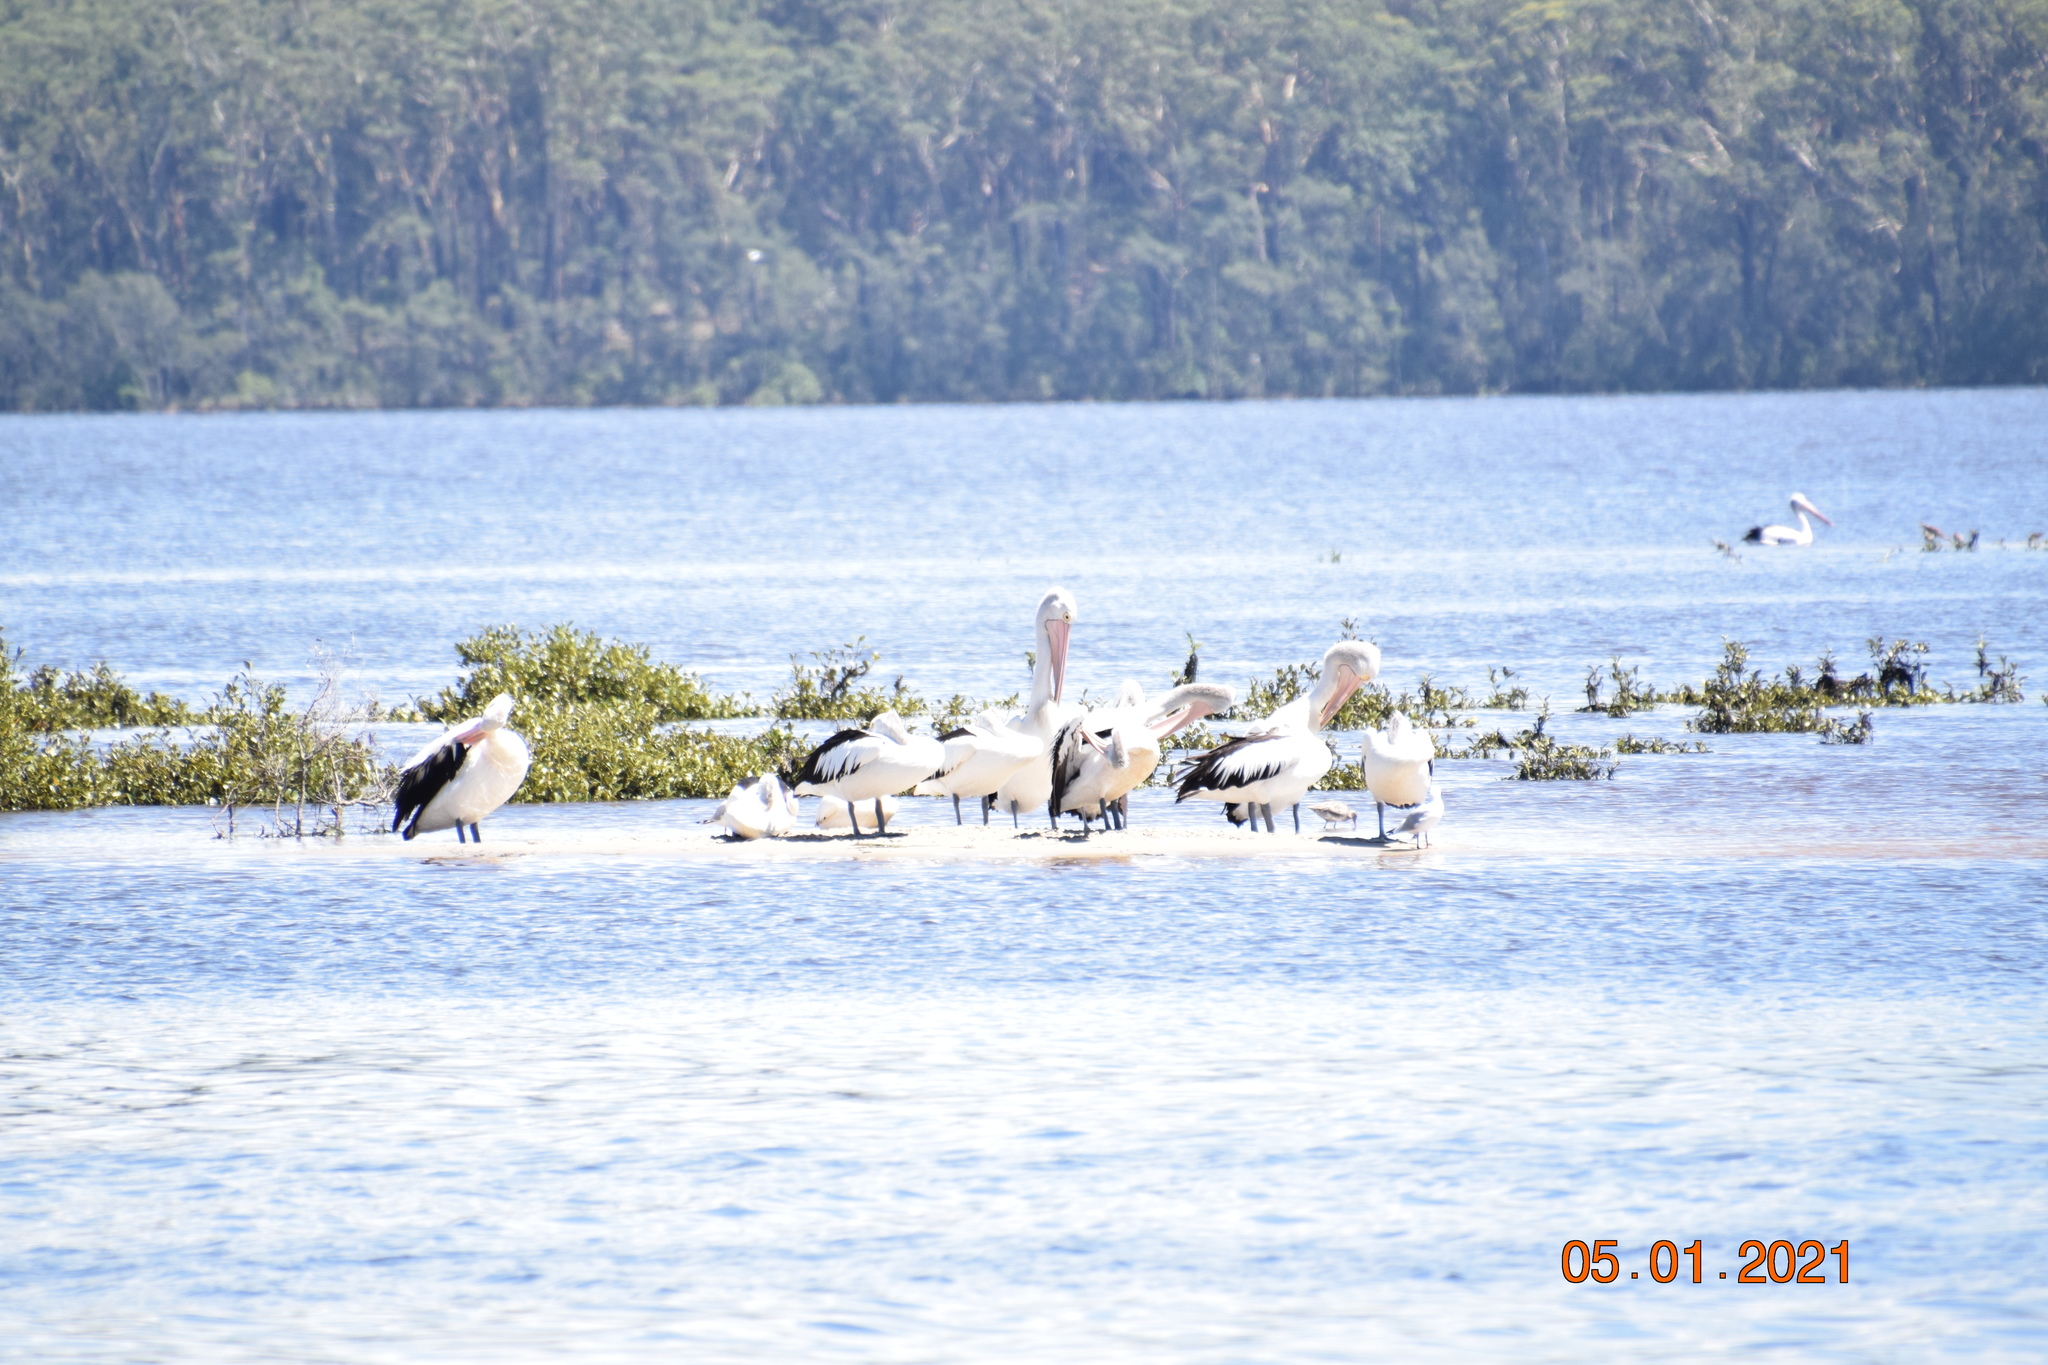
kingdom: Animalia
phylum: Chordata
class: Aves
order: Pelecaniformes
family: Pelecanidae
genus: Pelecanus
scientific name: Pelecanus conspicillatus
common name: Australian pelican
